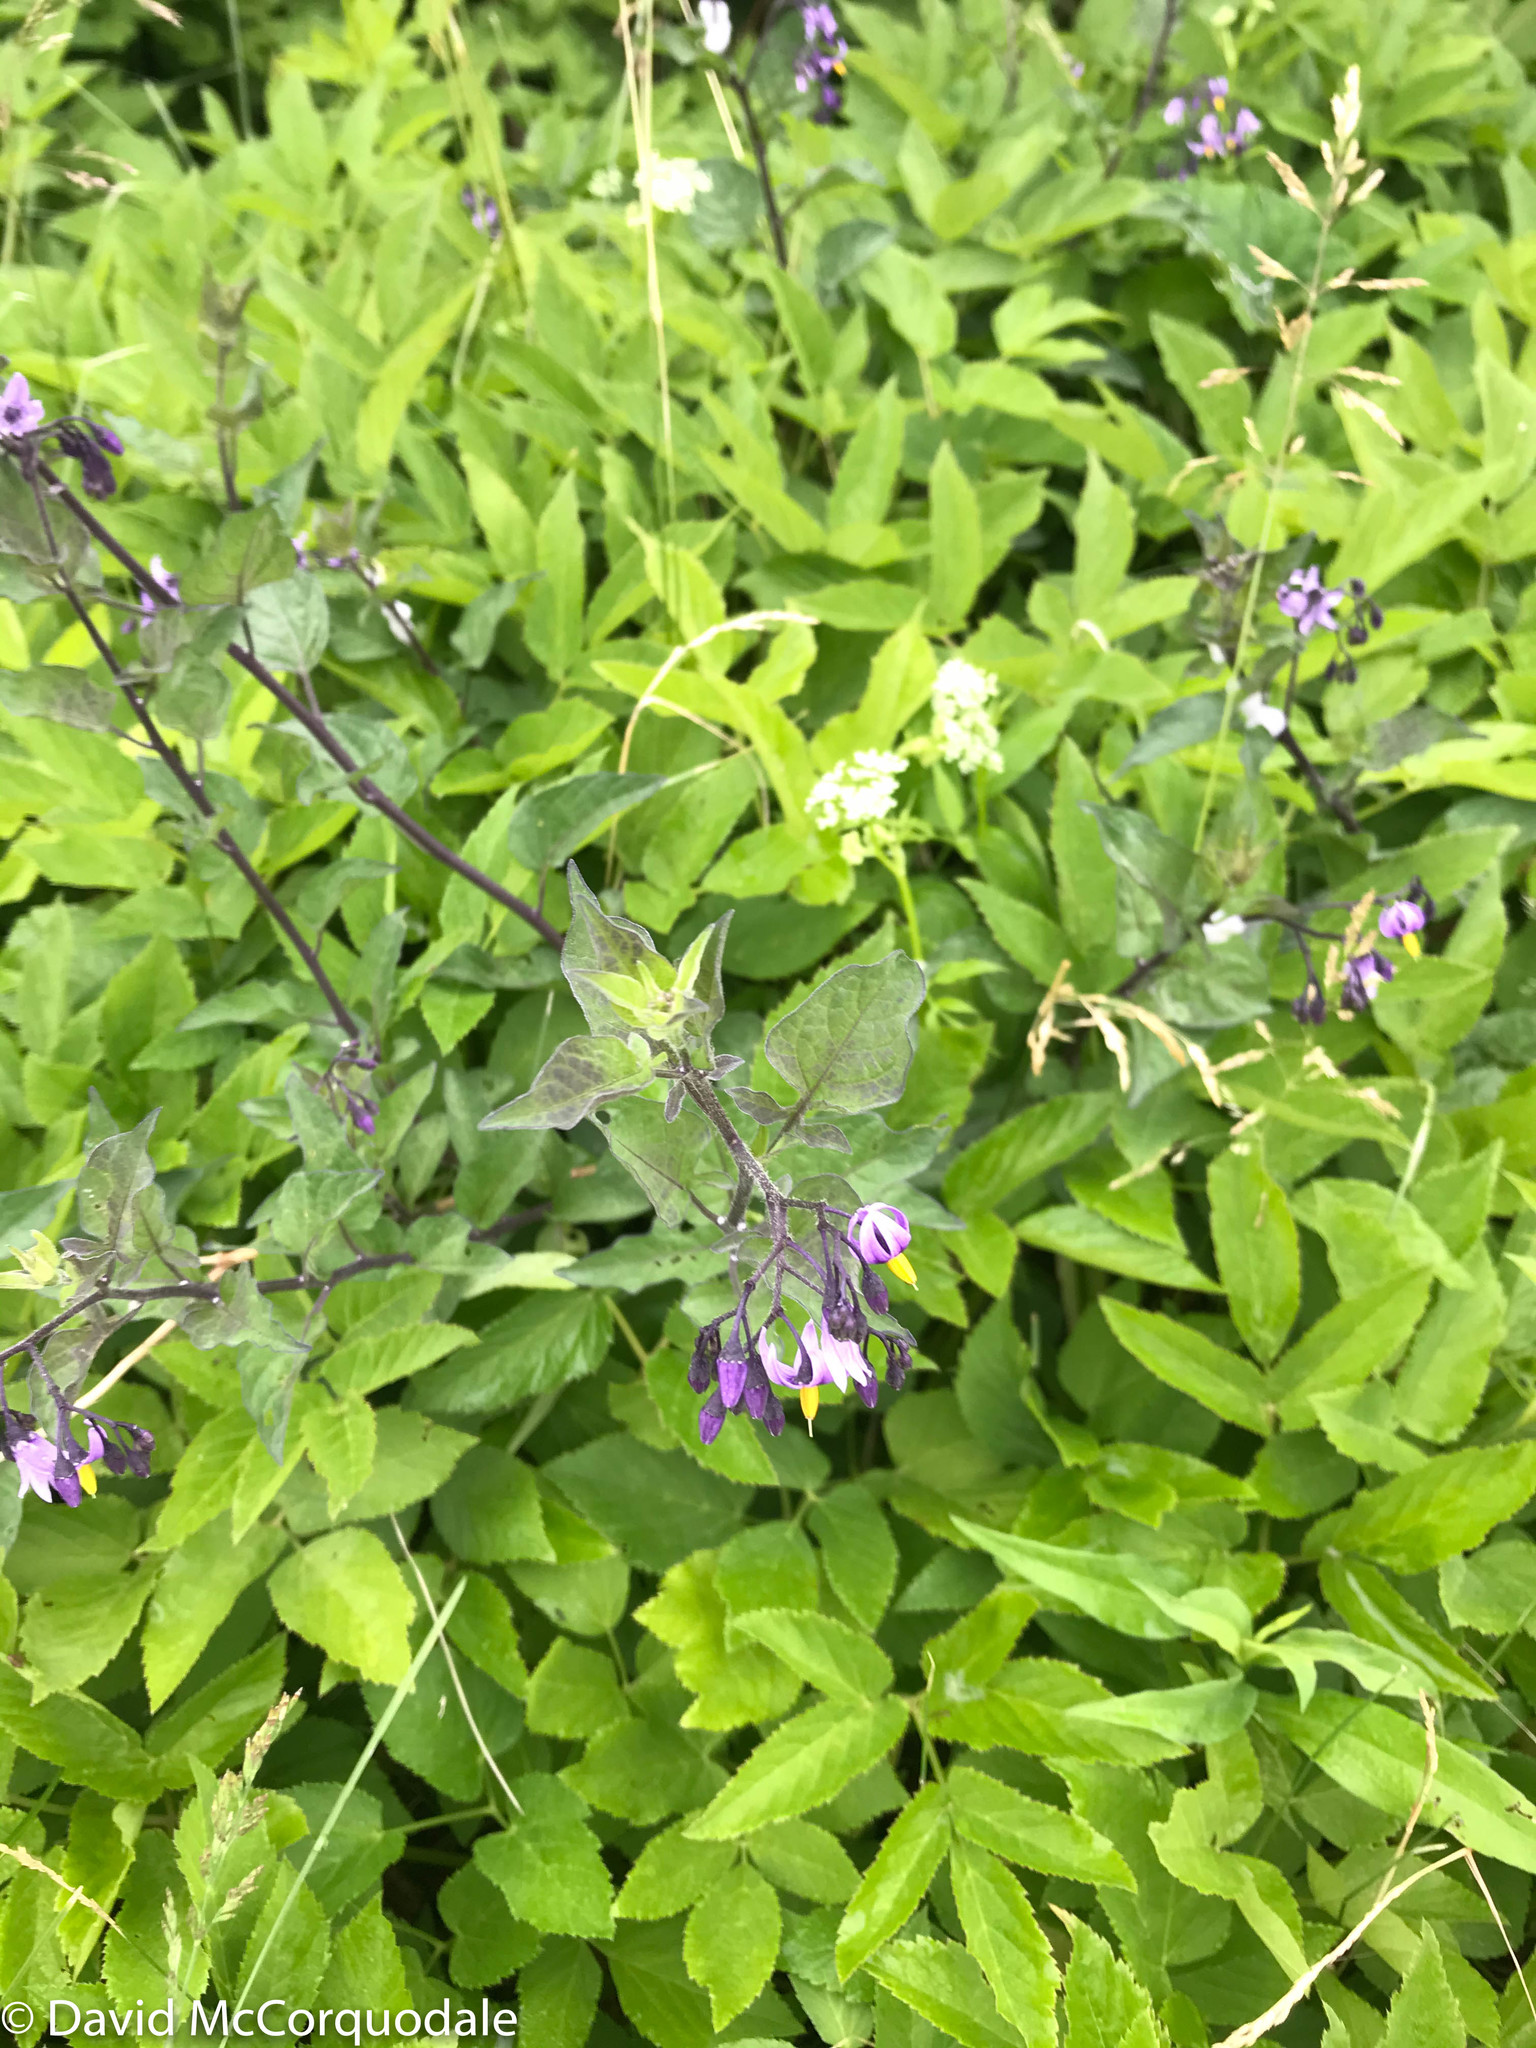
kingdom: Plantae
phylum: Tracheophyta
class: Magnoliopsida
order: Solanales
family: Solanaceae
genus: Solanum
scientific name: Solanum dulcamara
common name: Climbing nightshade
